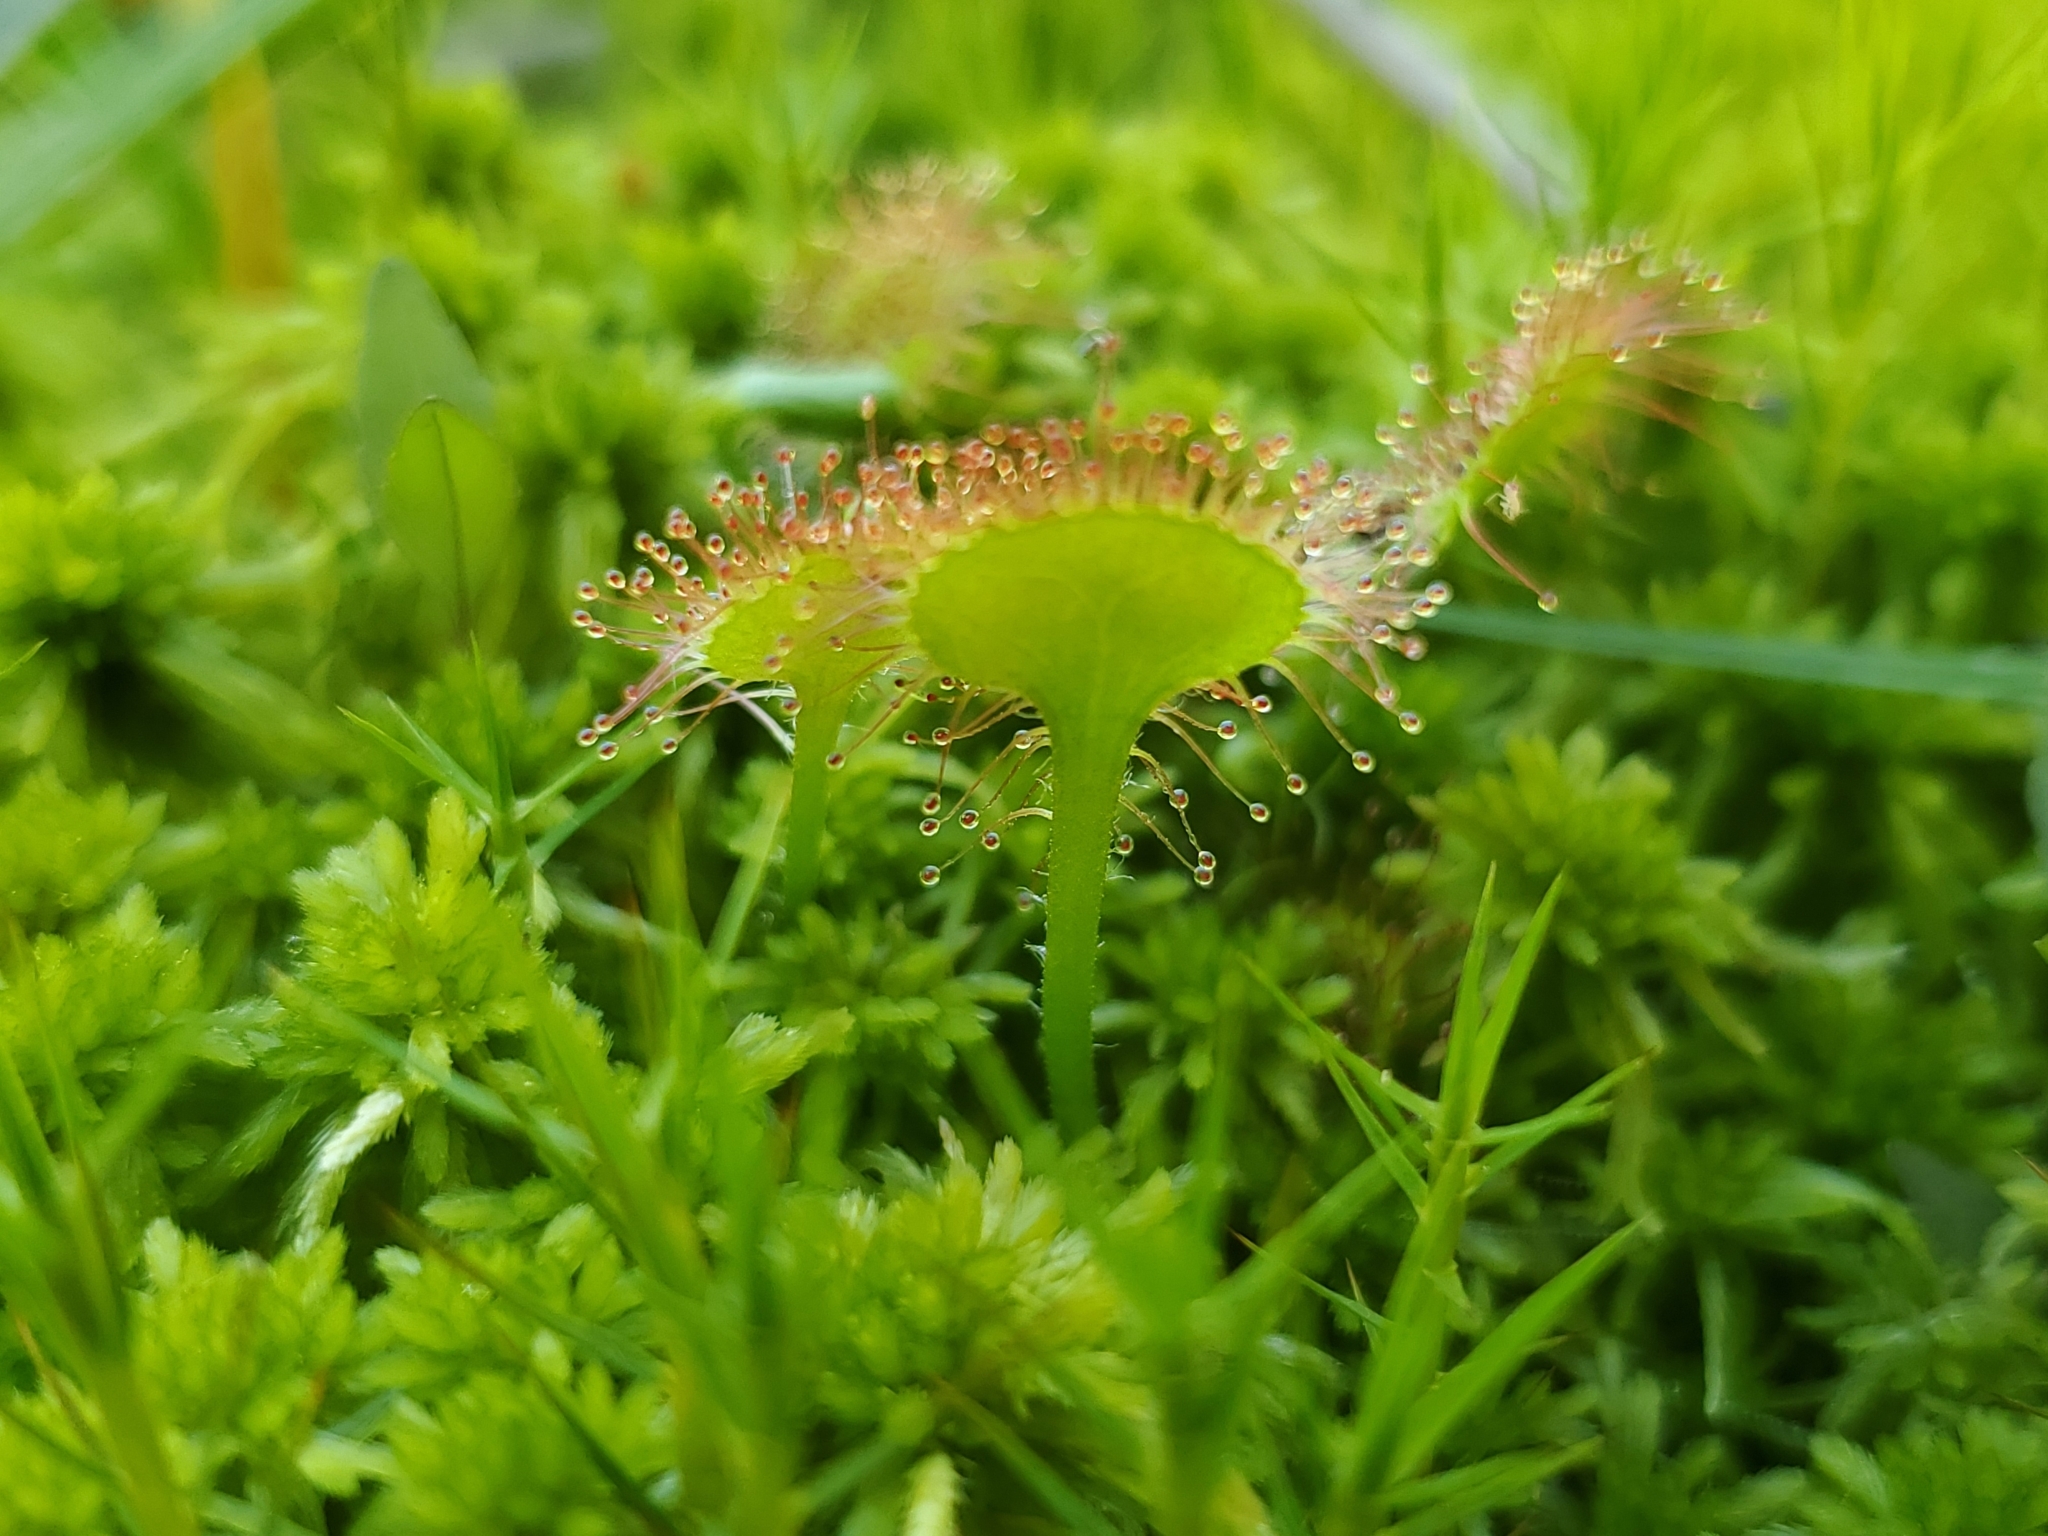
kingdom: Plantae
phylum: Tracheophyta
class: Magnoliopsida
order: Caryophyllales
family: Droseraceae
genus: Drosera
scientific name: Drosera rotundifolia
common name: Round-leaved sundew
